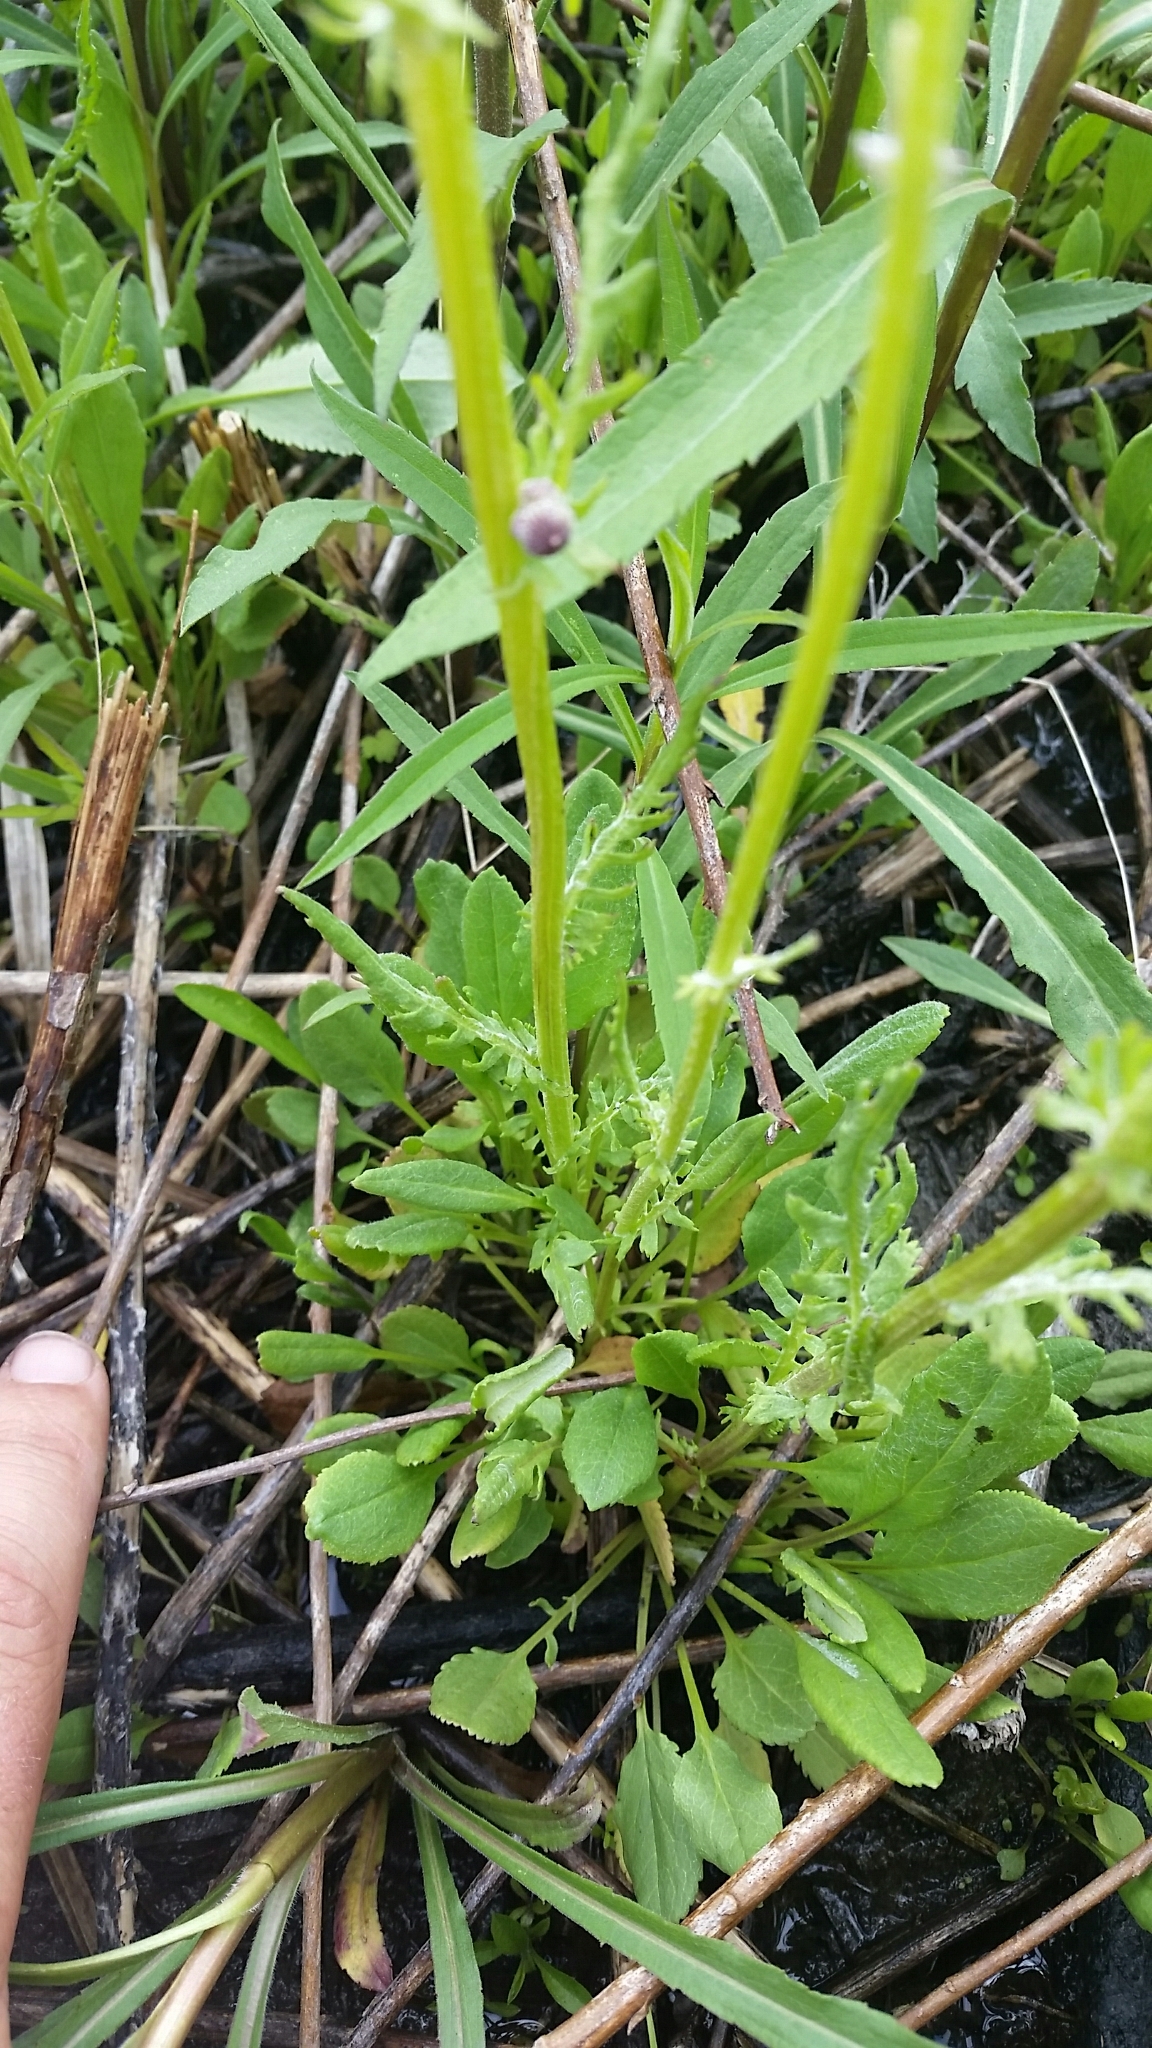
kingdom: Plantae
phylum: Tracheophyta
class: Magnoliopsida
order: Asterales
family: Asteraceae
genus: Packera
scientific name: Packera plattensis
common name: Prairie groundsel
